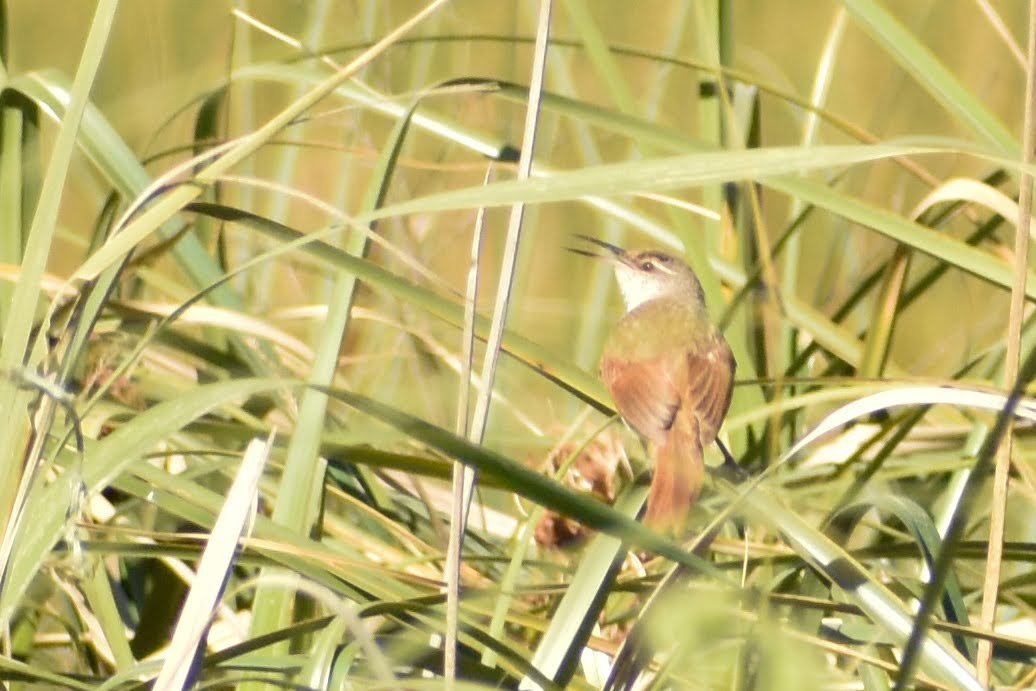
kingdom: Animalia
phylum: Chordata
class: Aves
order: Passeriformes
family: Furnariidae
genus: Limnornis
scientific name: Limnornis rectirostris
